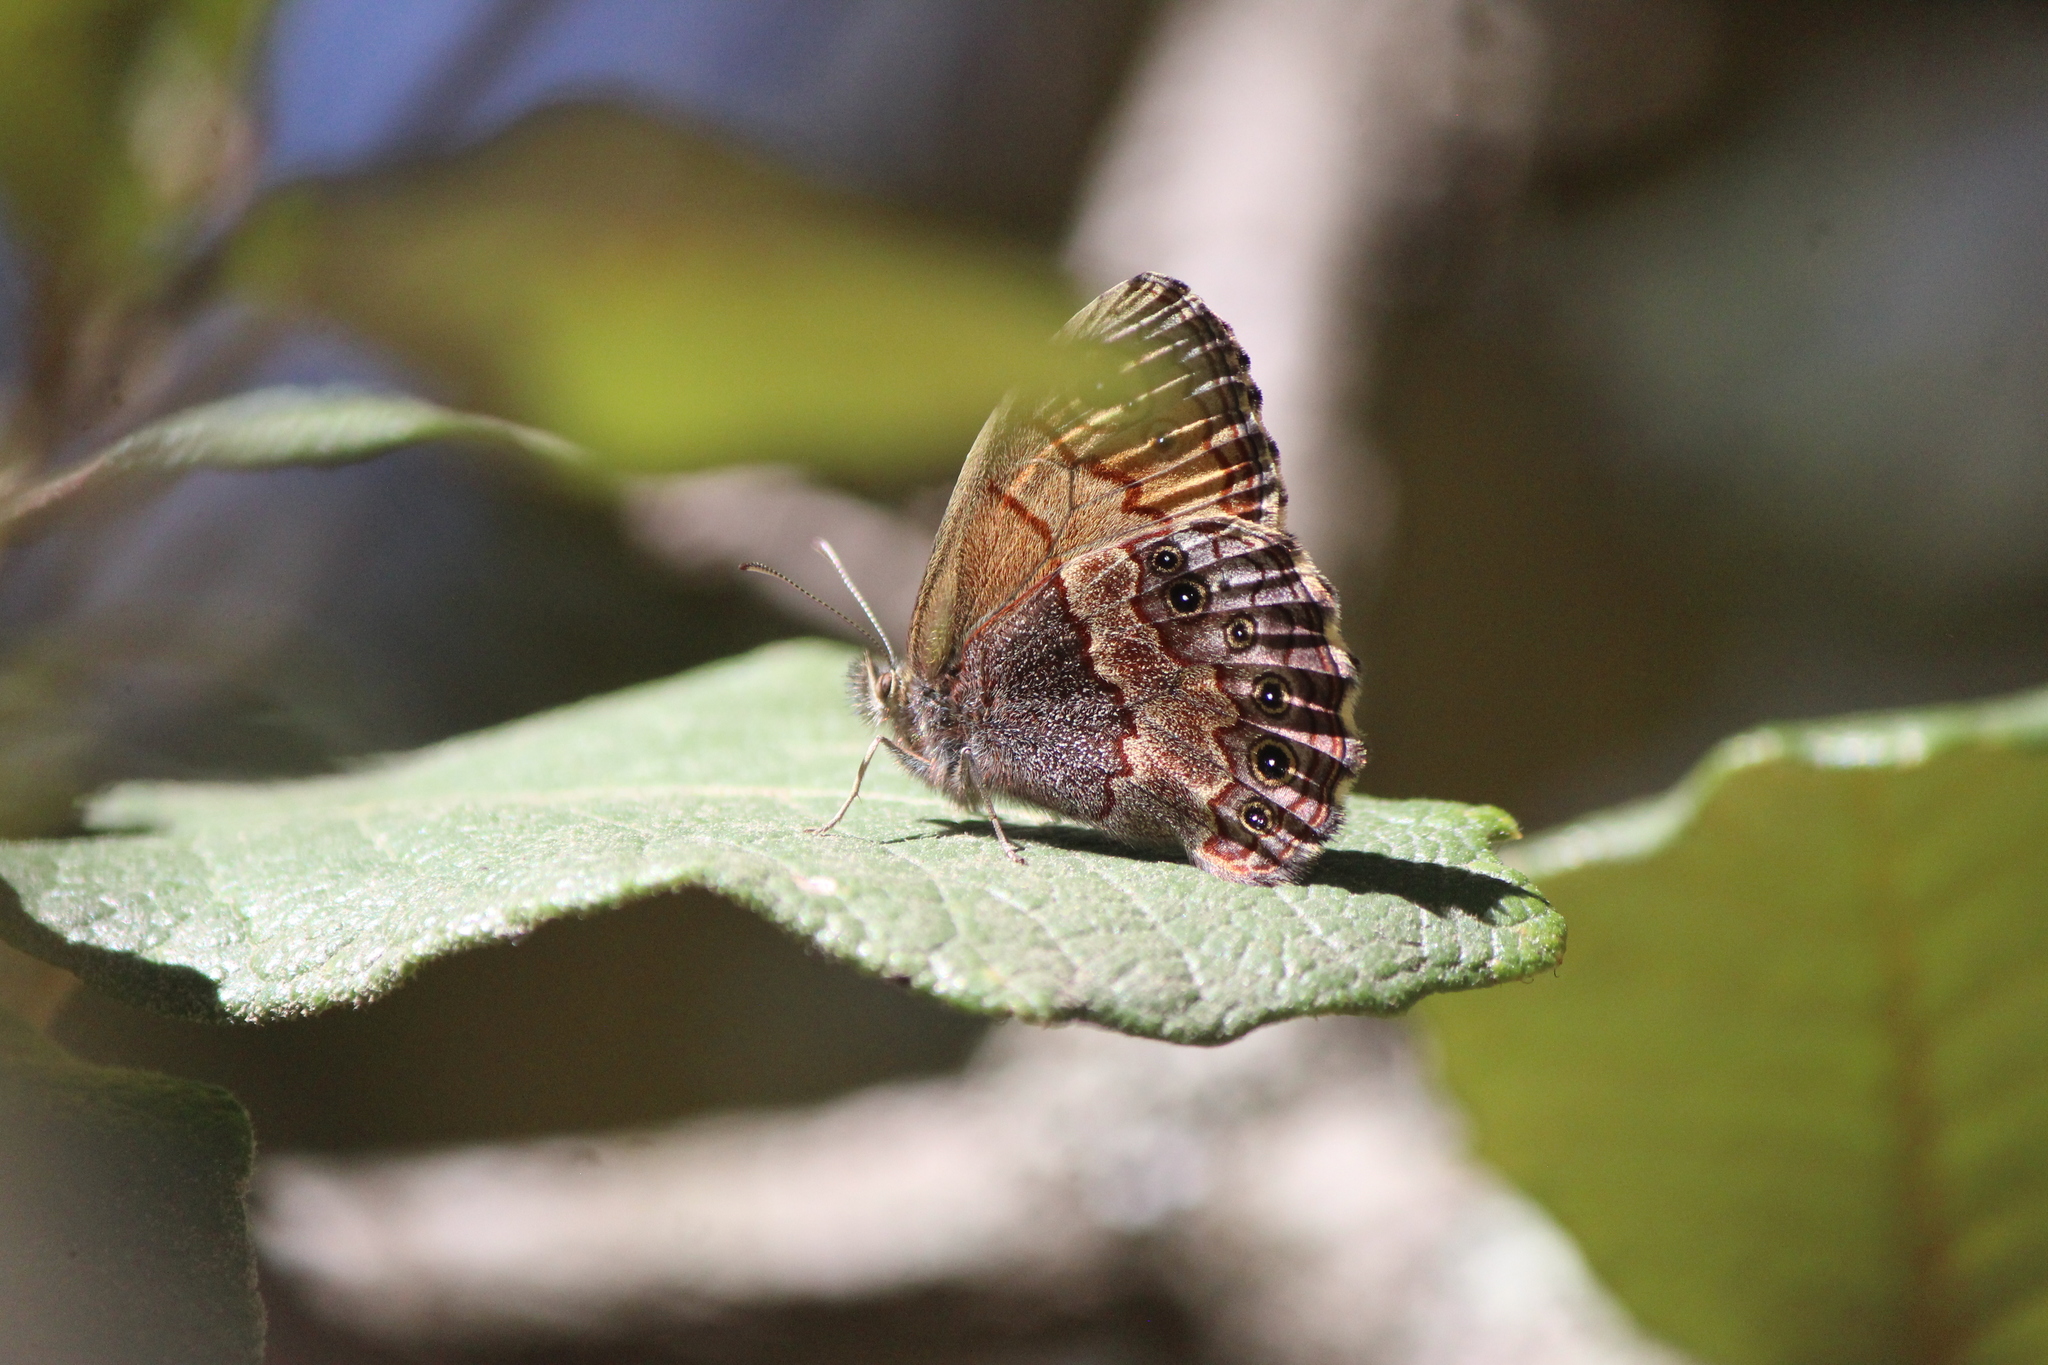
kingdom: Animalia
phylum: Arthropoda
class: Insecta
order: Lepidoptera
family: Nymphalidae
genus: Paramecera
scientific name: Paramecera xicaque
